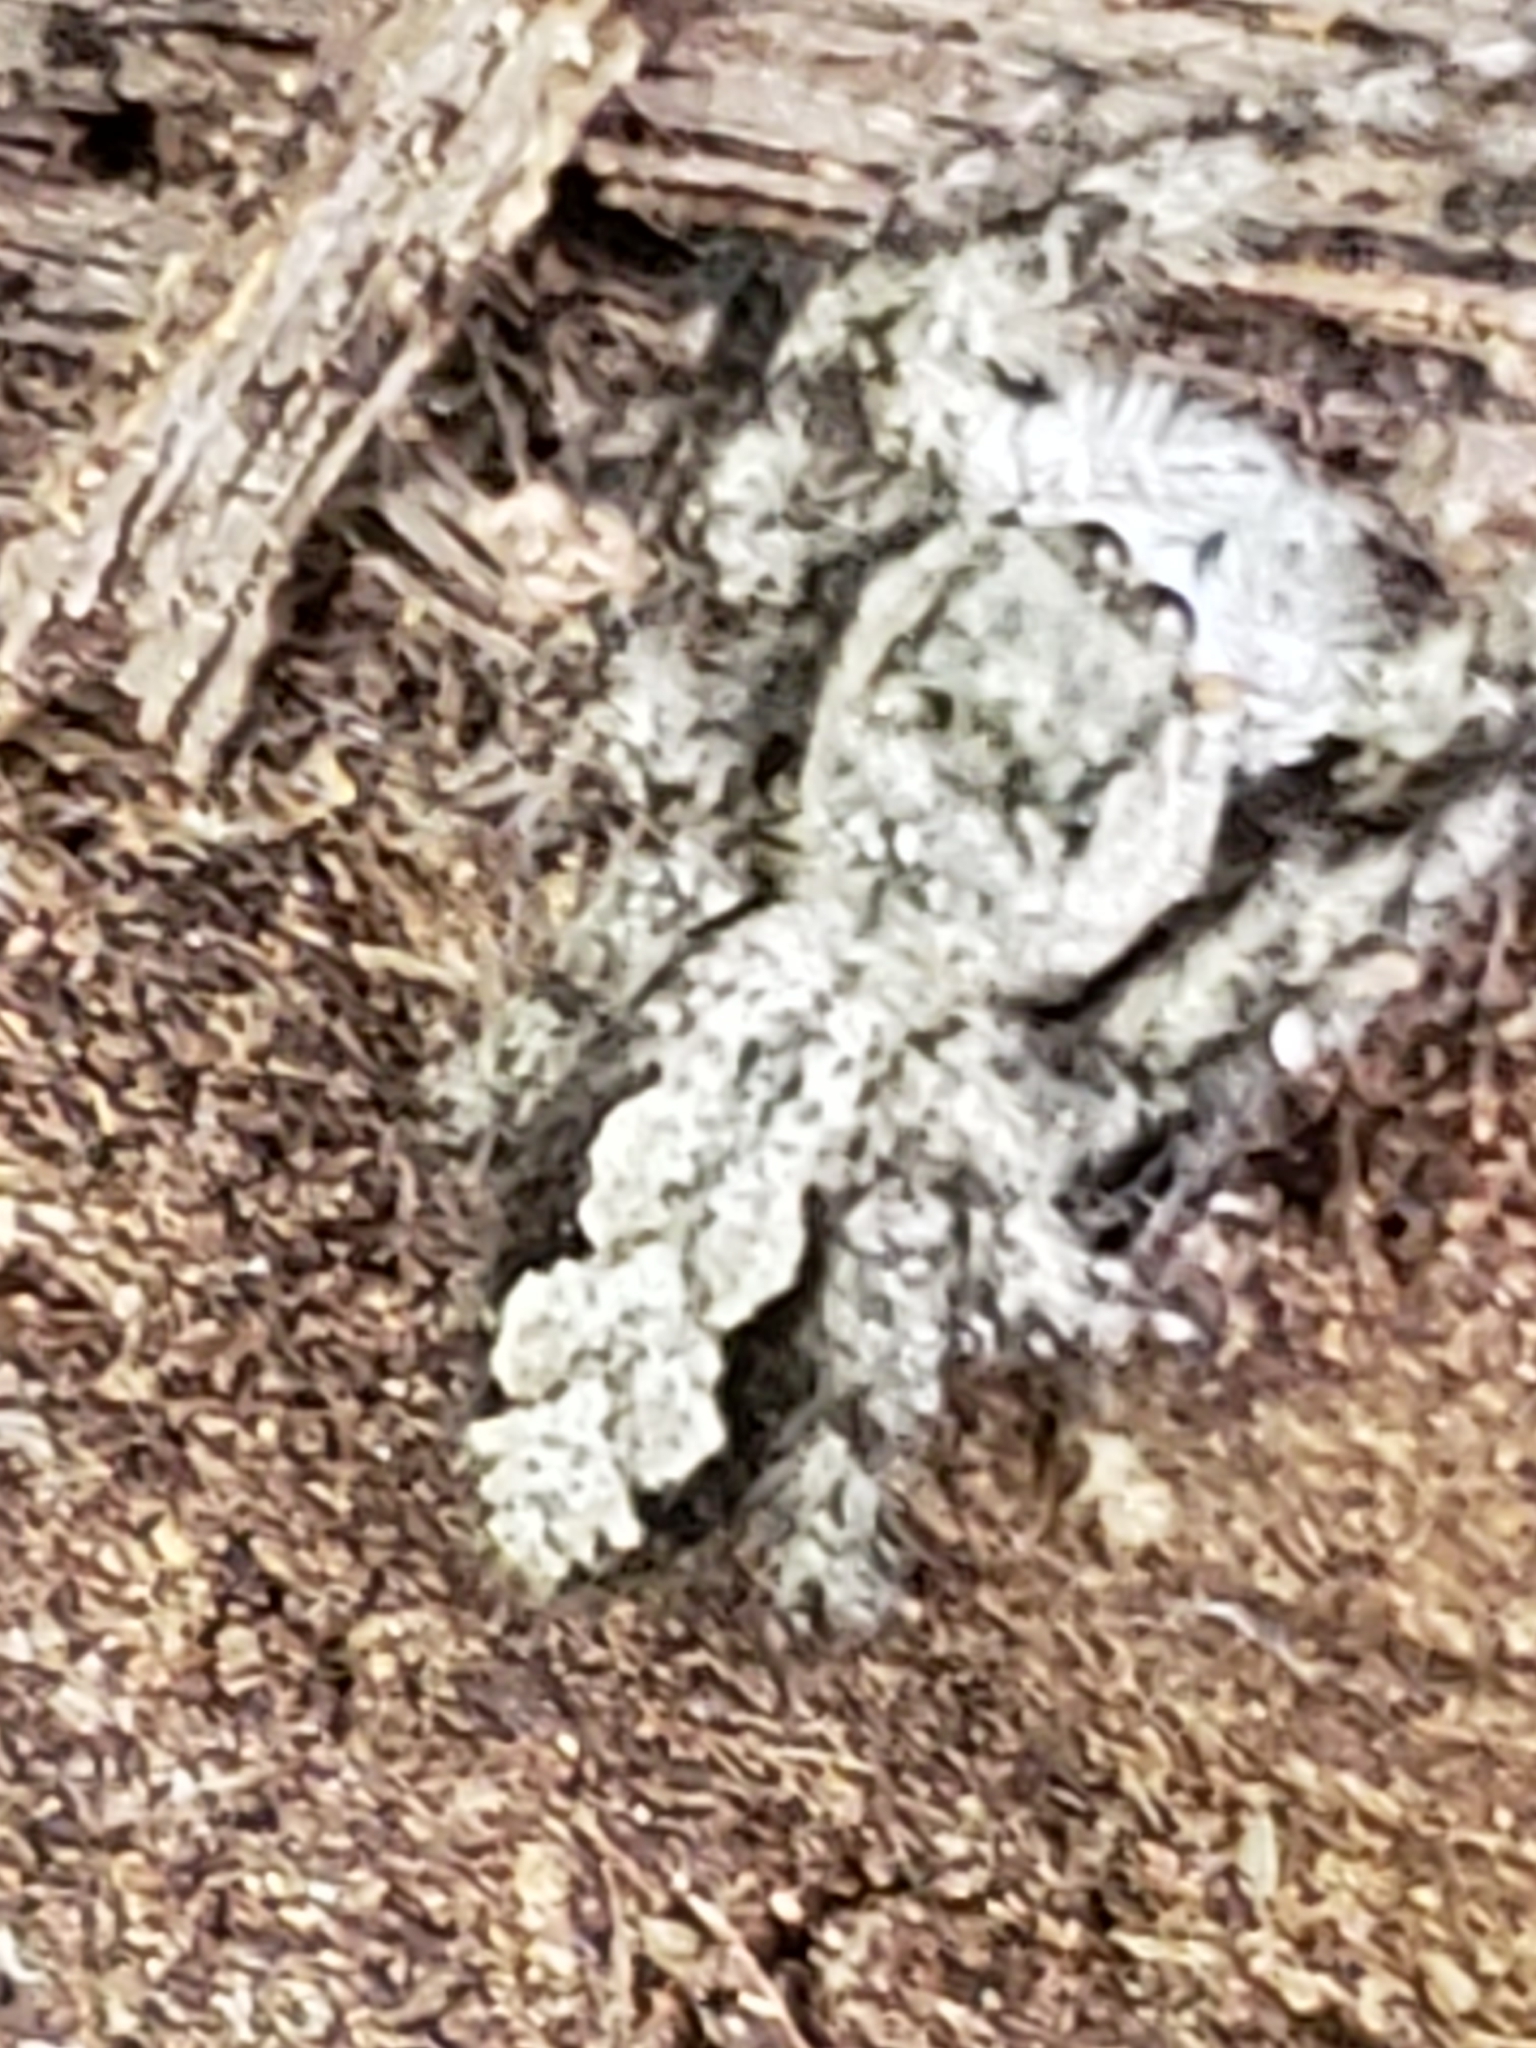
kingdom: Animalia
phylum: Arthropoda
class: Arachnida
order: Araneae
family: Salticidae
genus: Platycryptus
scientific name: Platycryptus undatus
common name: Tan jumping spider
